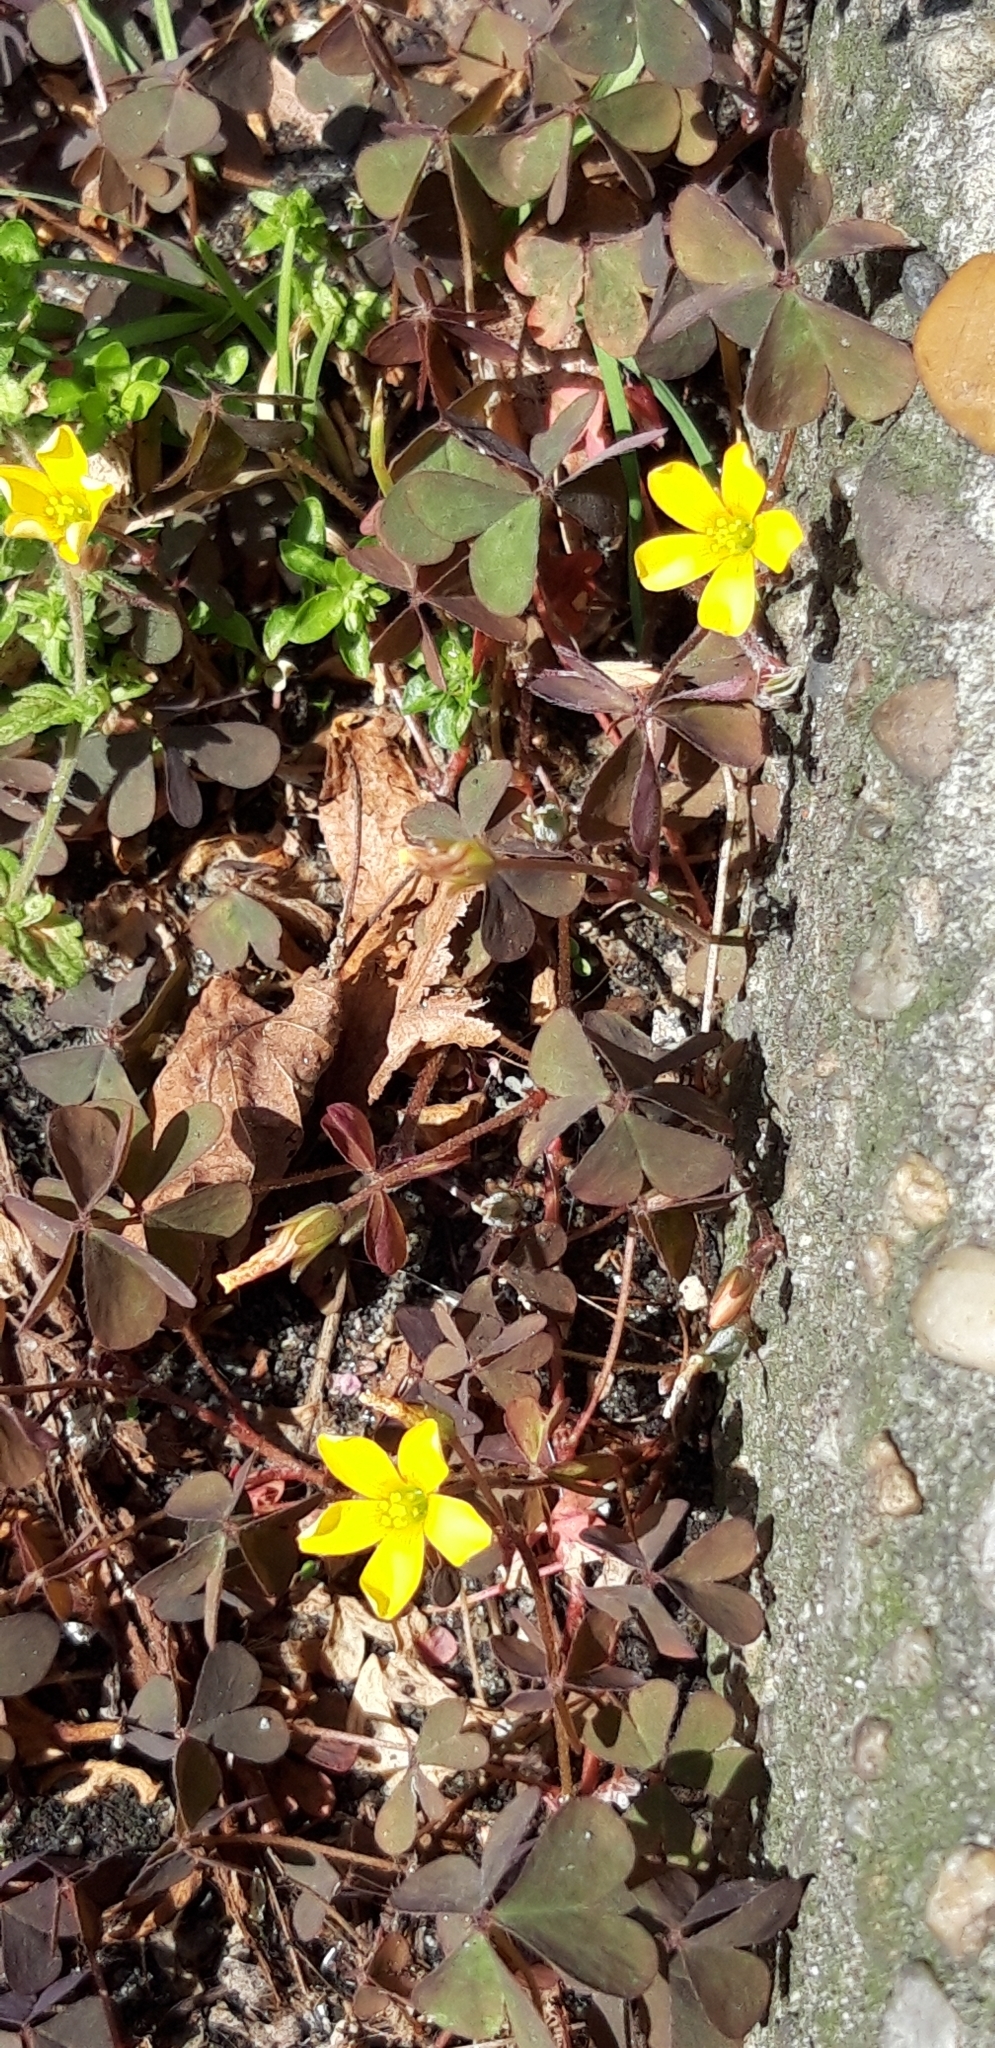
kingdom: Plantae
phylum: Tracheophyta
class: Magnoliopsida
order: Oxalidales
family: Oxalidaceae
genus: Oxalis
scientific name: Oxalis corniculata
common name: Procumbent yellow-sorrel
